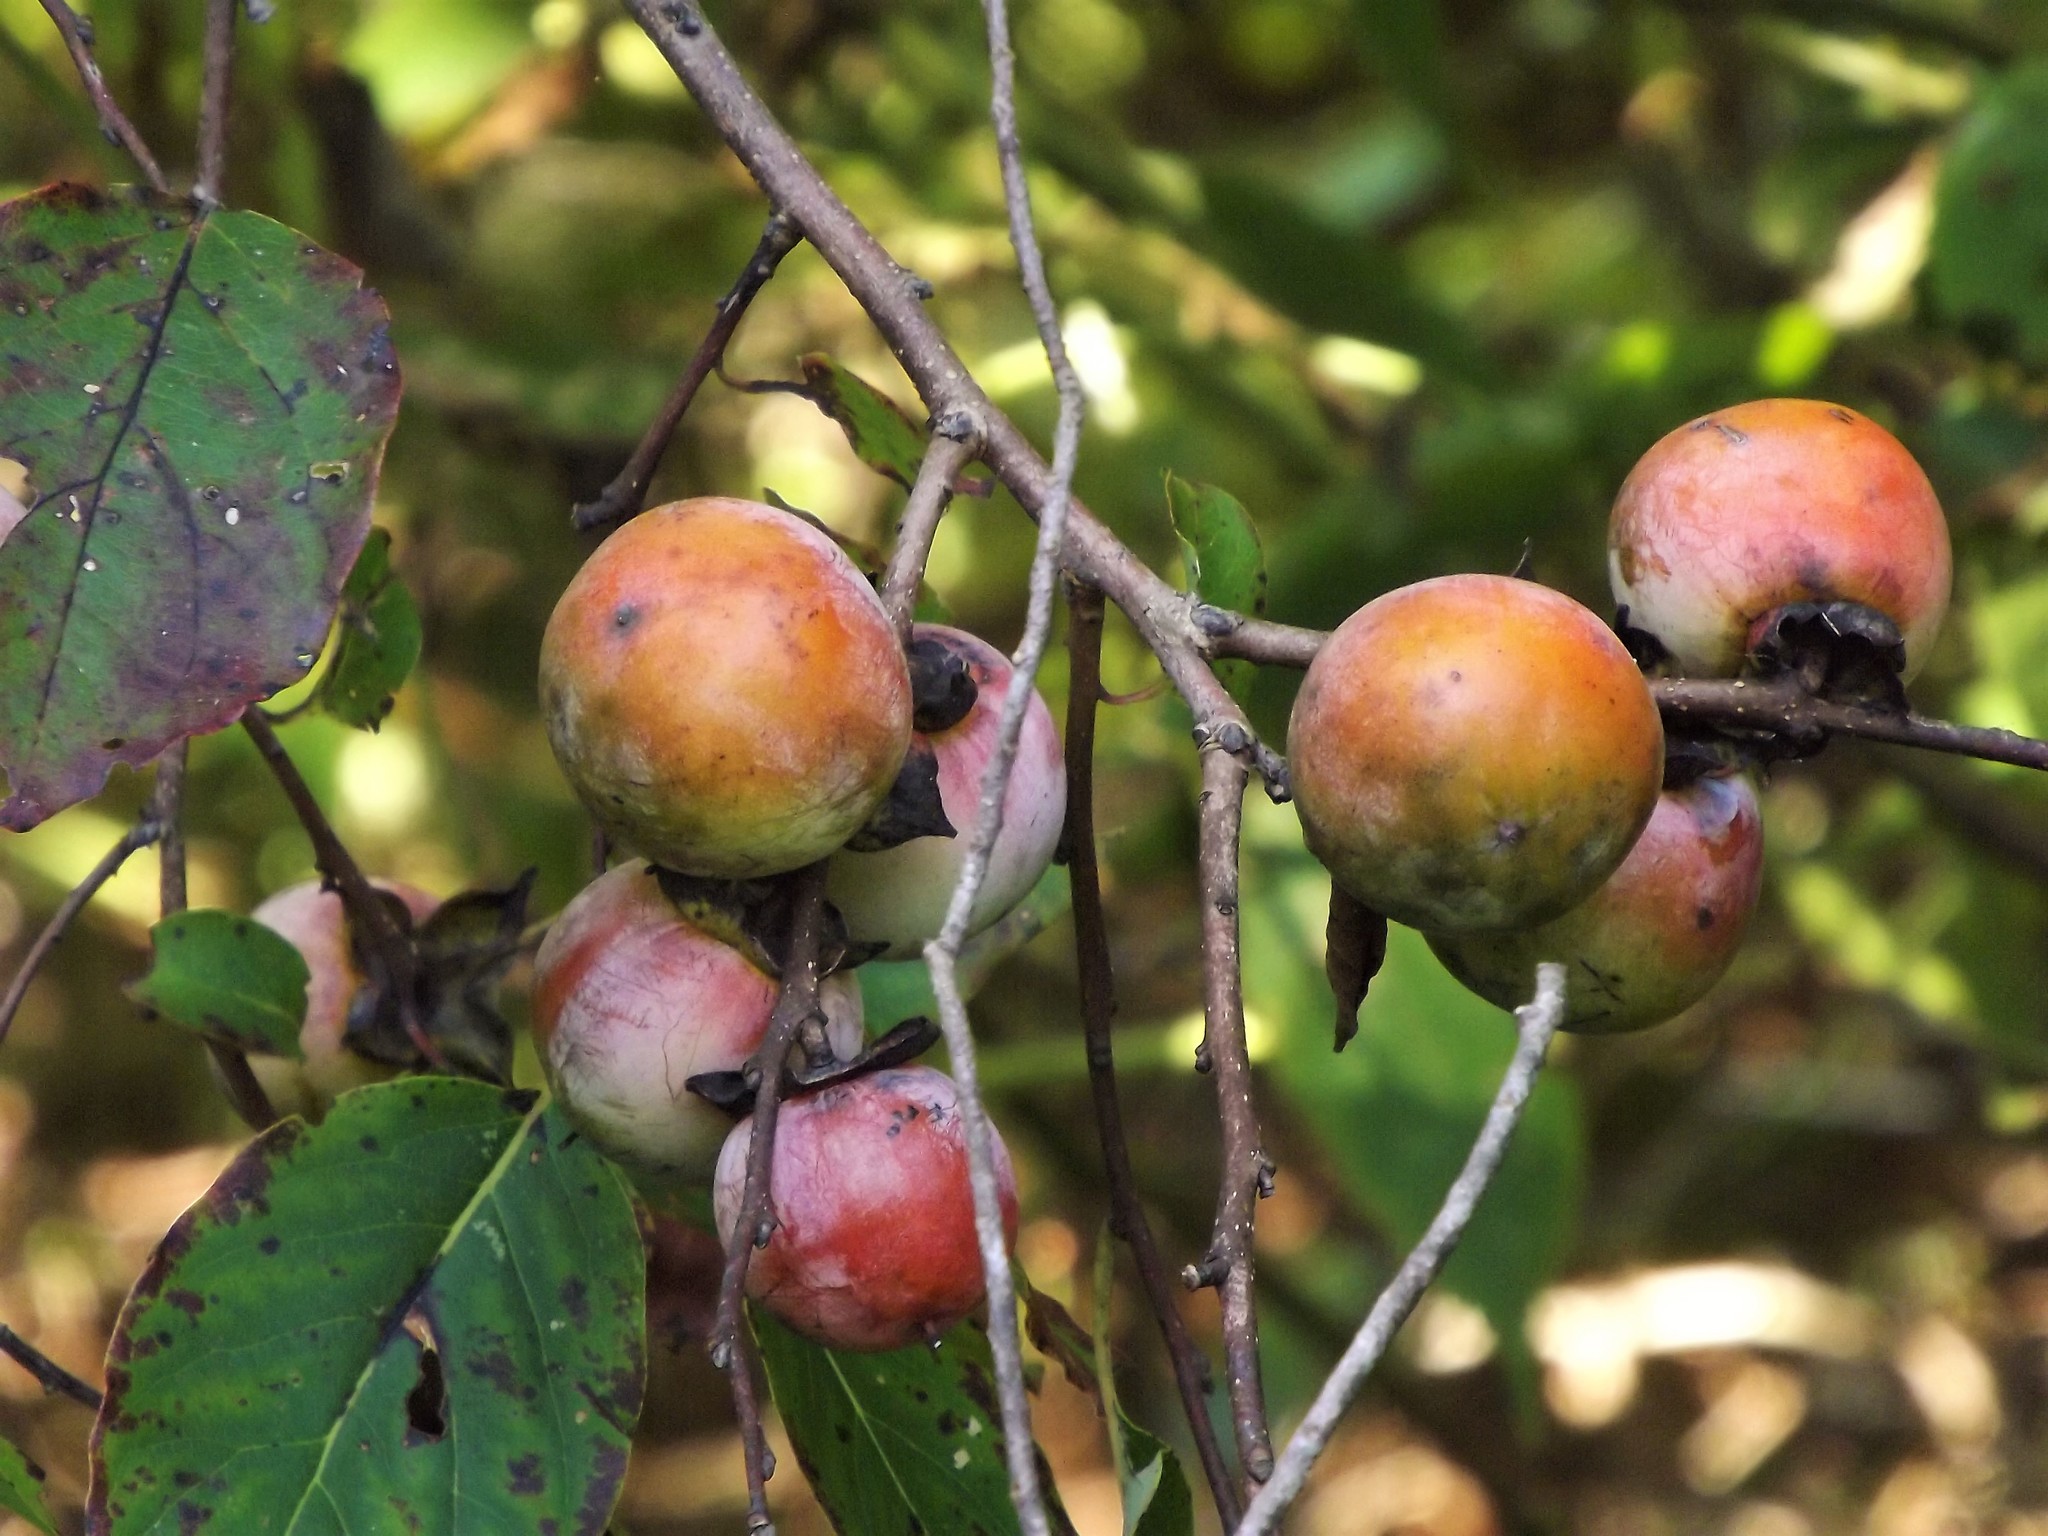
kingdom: Plantae
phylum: Tracheophyta
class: Magnoliopsida
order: Ericales
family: Ebenaceae
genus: Diospyros
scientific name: Diospyros virginiana
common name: Persimmon
